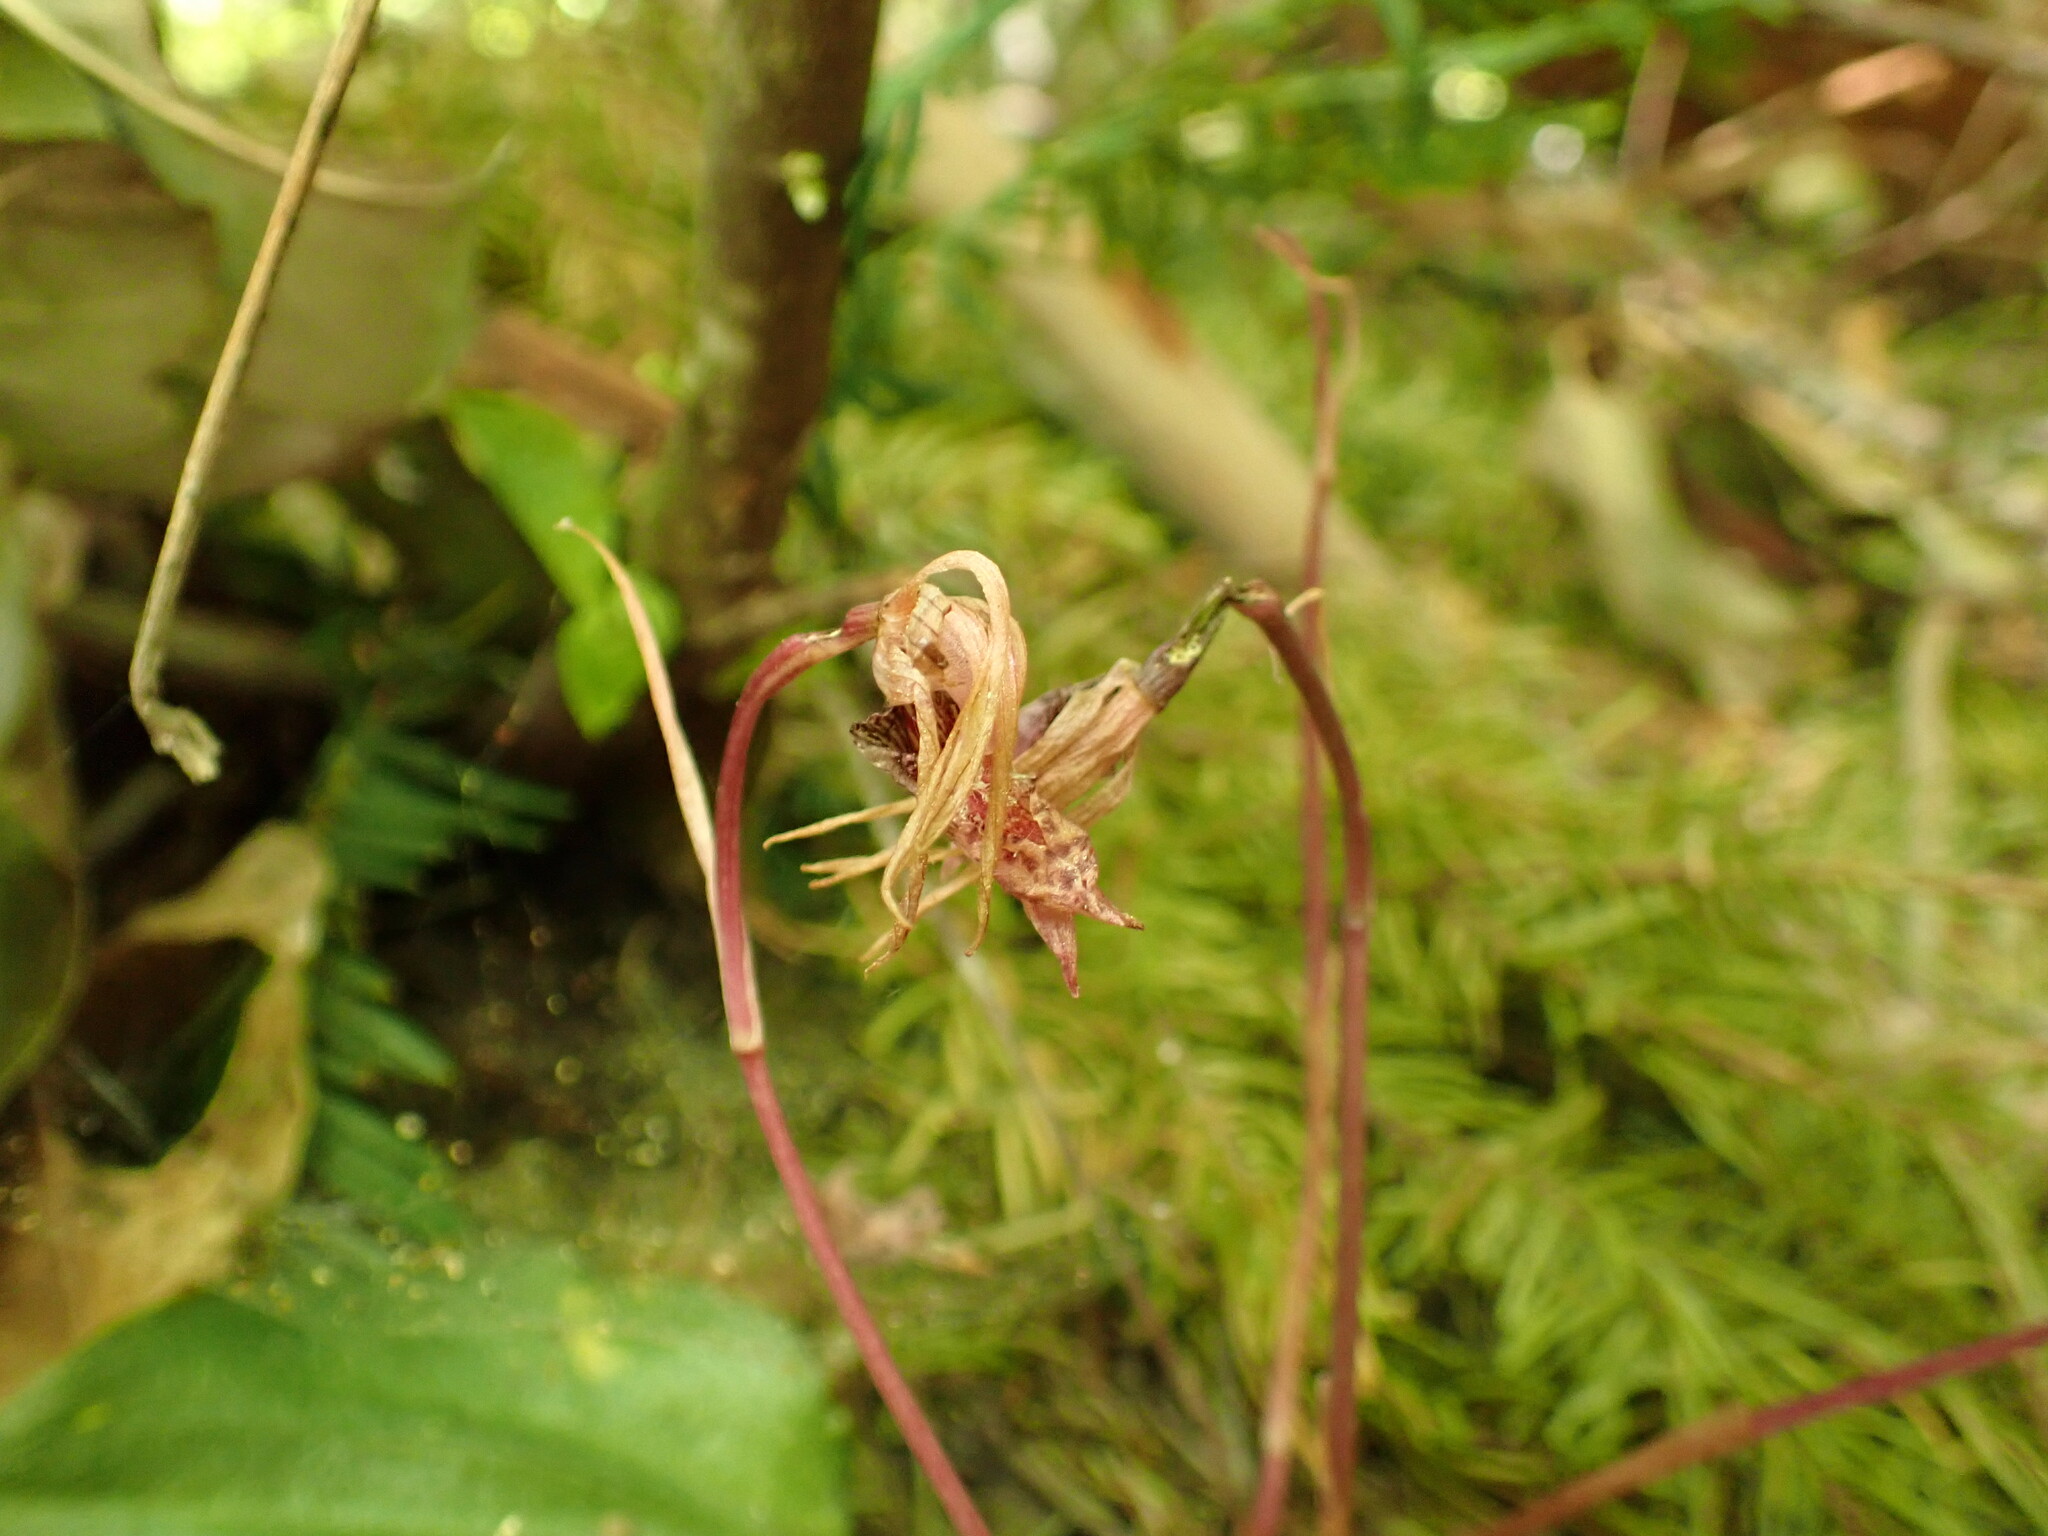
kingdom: Plantae
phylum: Tracheophyta
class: Liliopsida
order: Asparagales
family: Orchidaceae
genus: Calypso
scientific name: Calypso bulbosa
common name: Calypso
